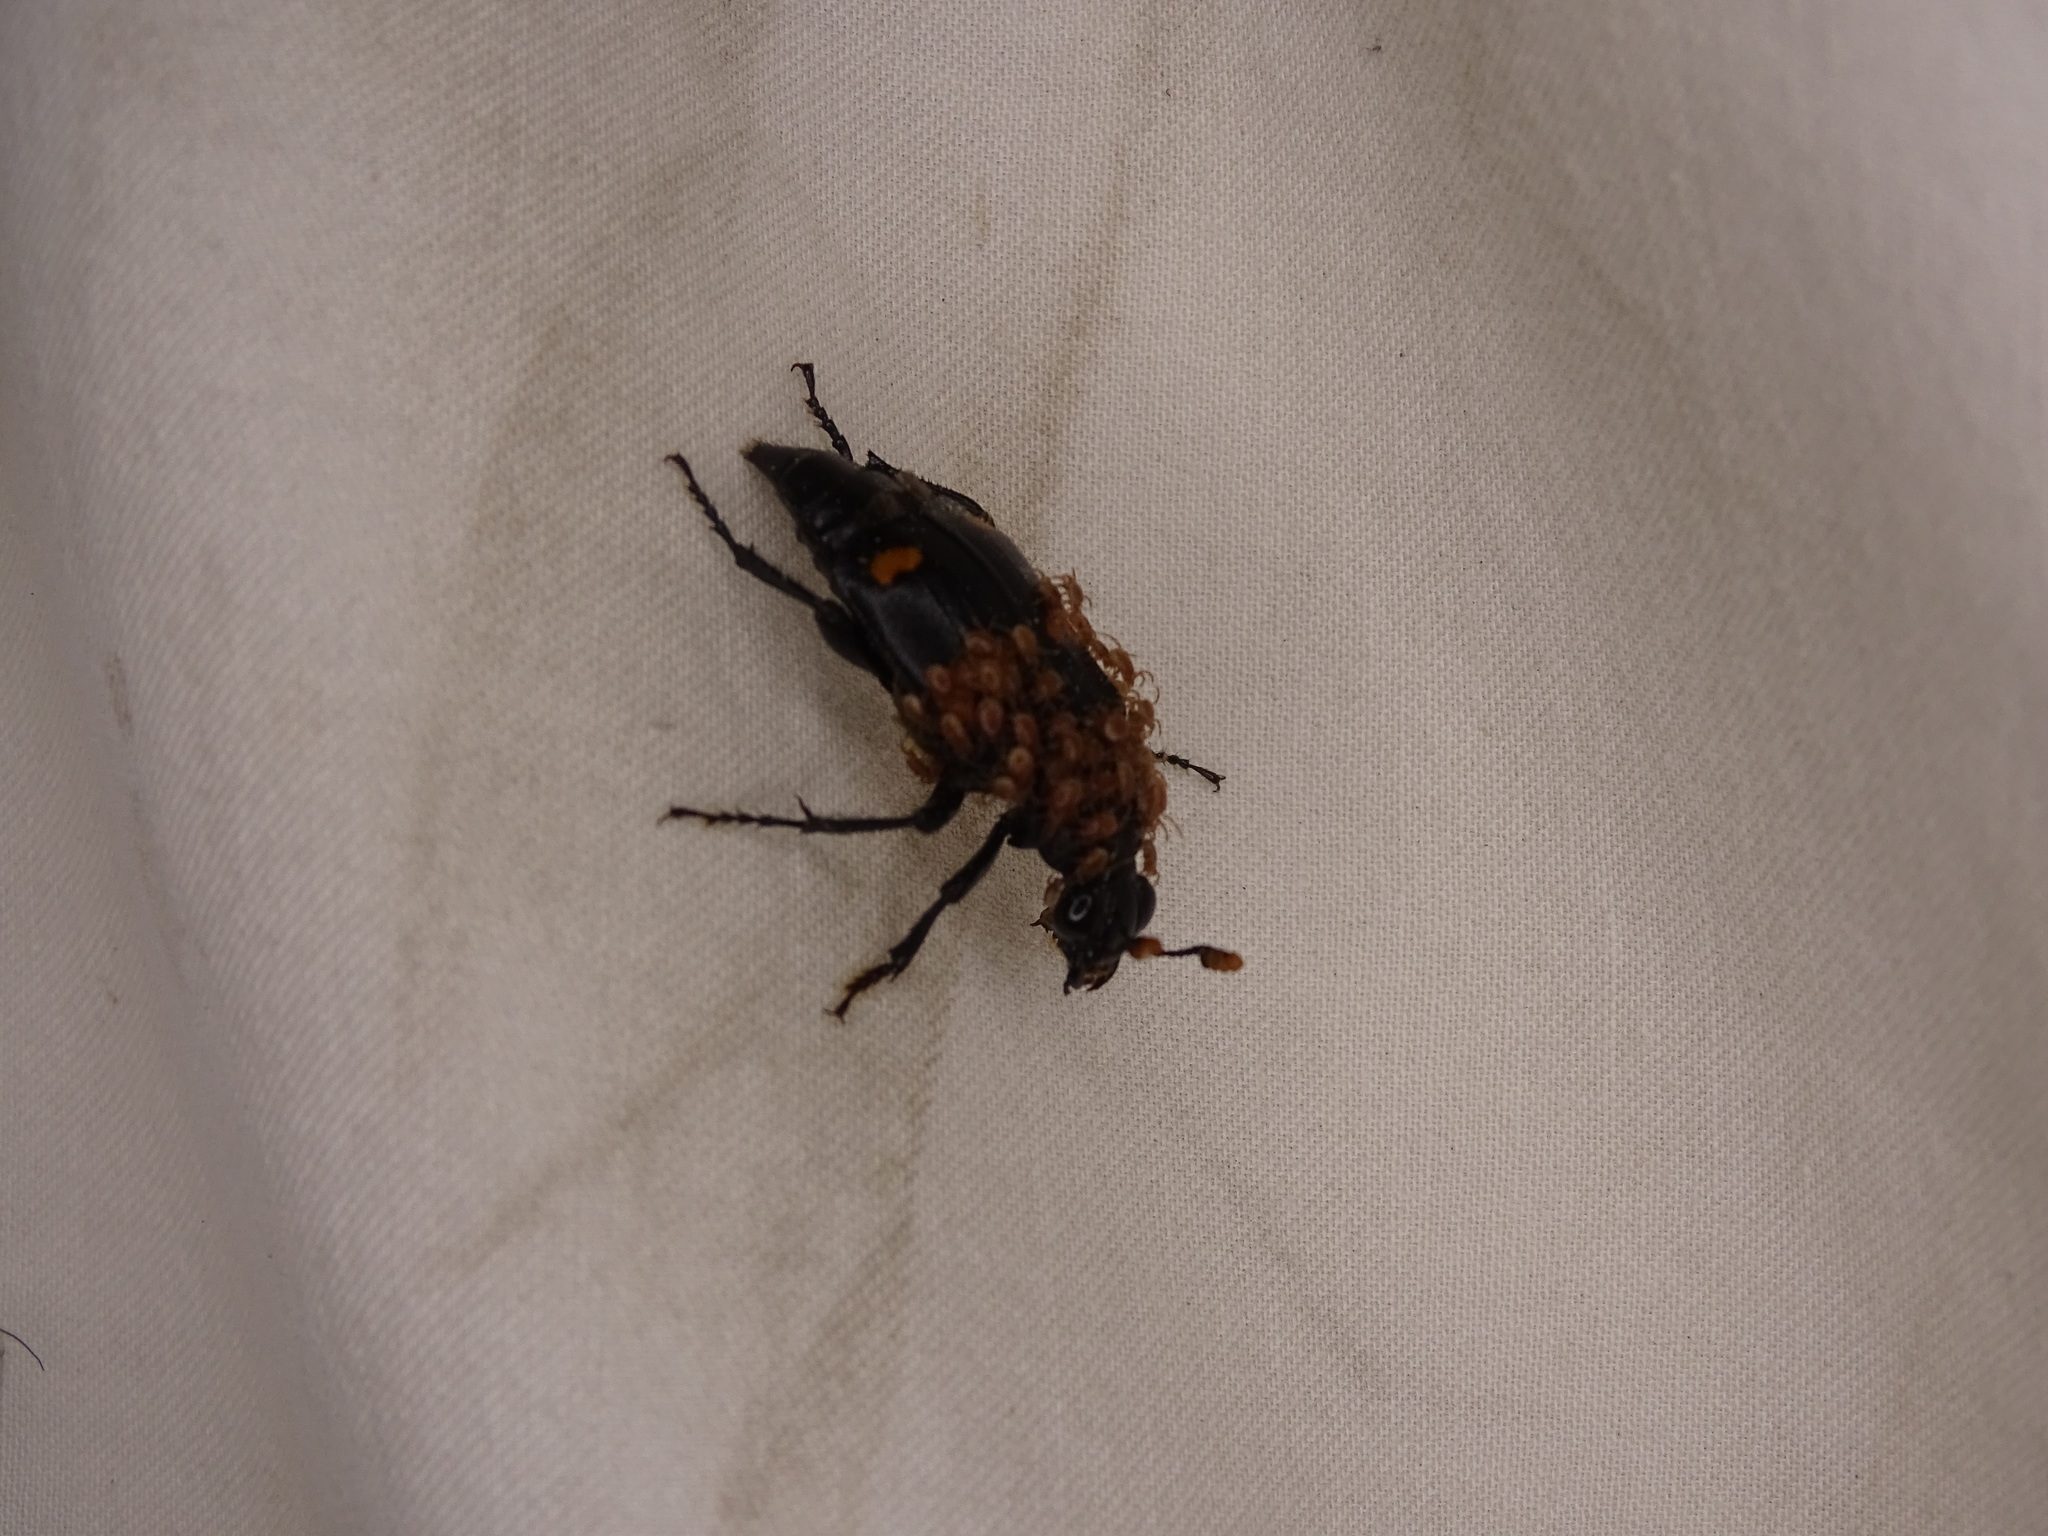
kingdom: Animalia
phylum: Arthropoda
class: Insecta
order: Coleoptera
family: Staphylinidae
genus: Nicrophorus
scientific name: Nicrophorus orbicollis
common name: Roundneck sexton beetle
